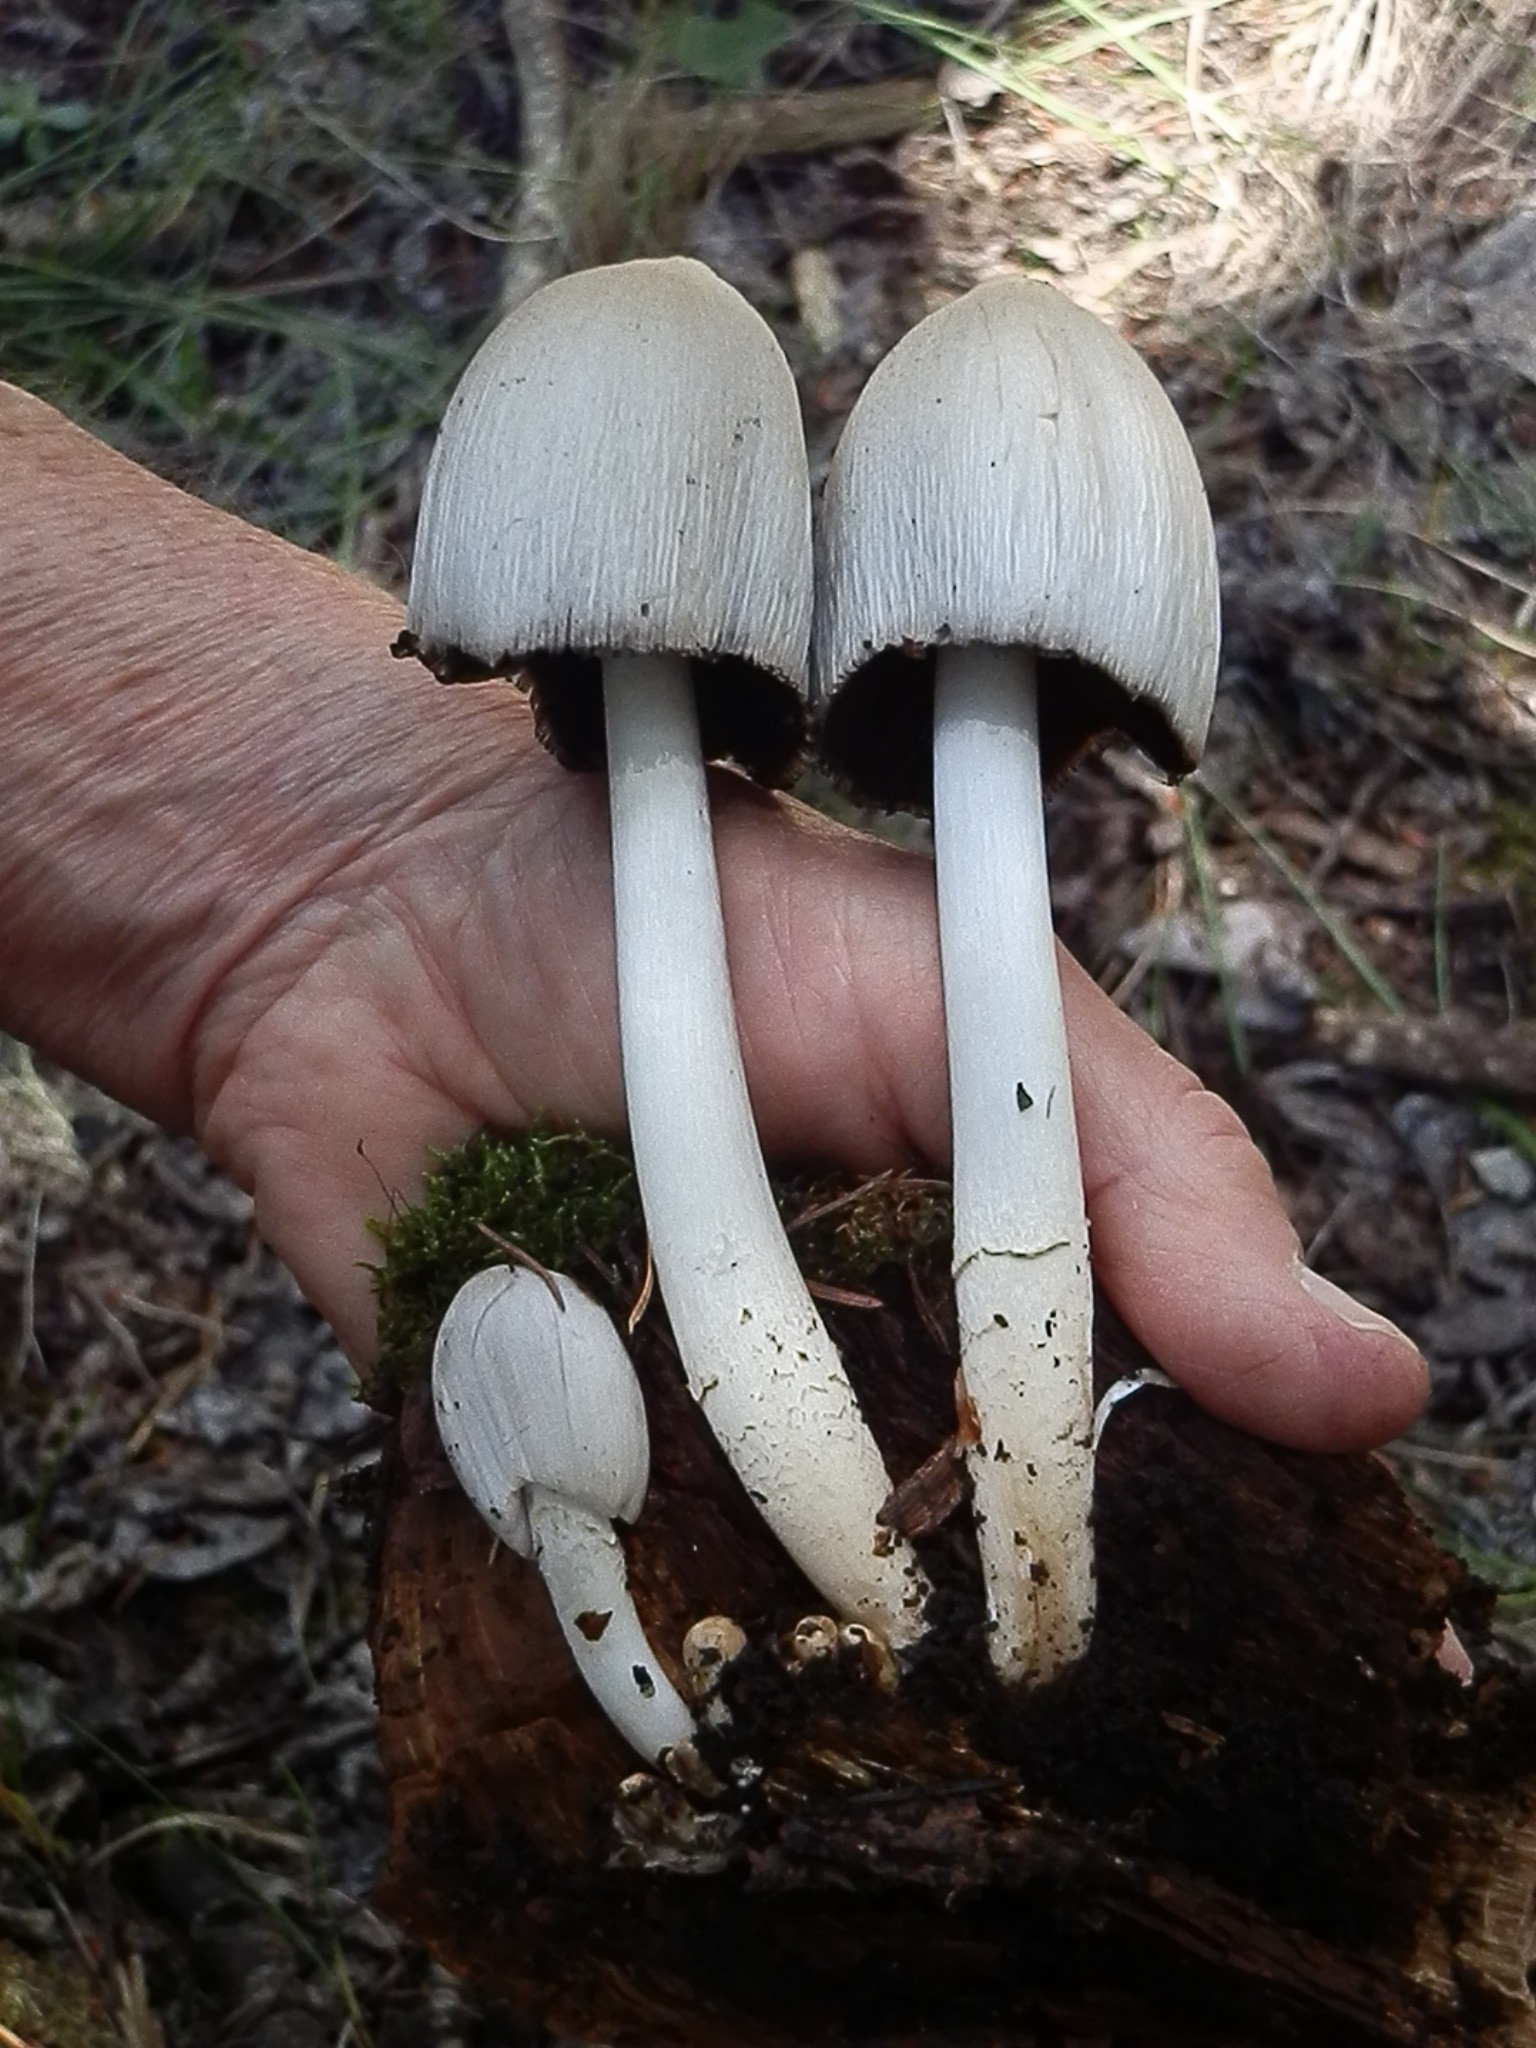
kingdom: Fungi
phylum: Basidiomycota
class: Agaricomycetes
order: Agaricales
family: Psathyrellaceae
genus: Coprinopsis
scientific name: Coprinopsis atramentaria
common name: Common ink-cap
